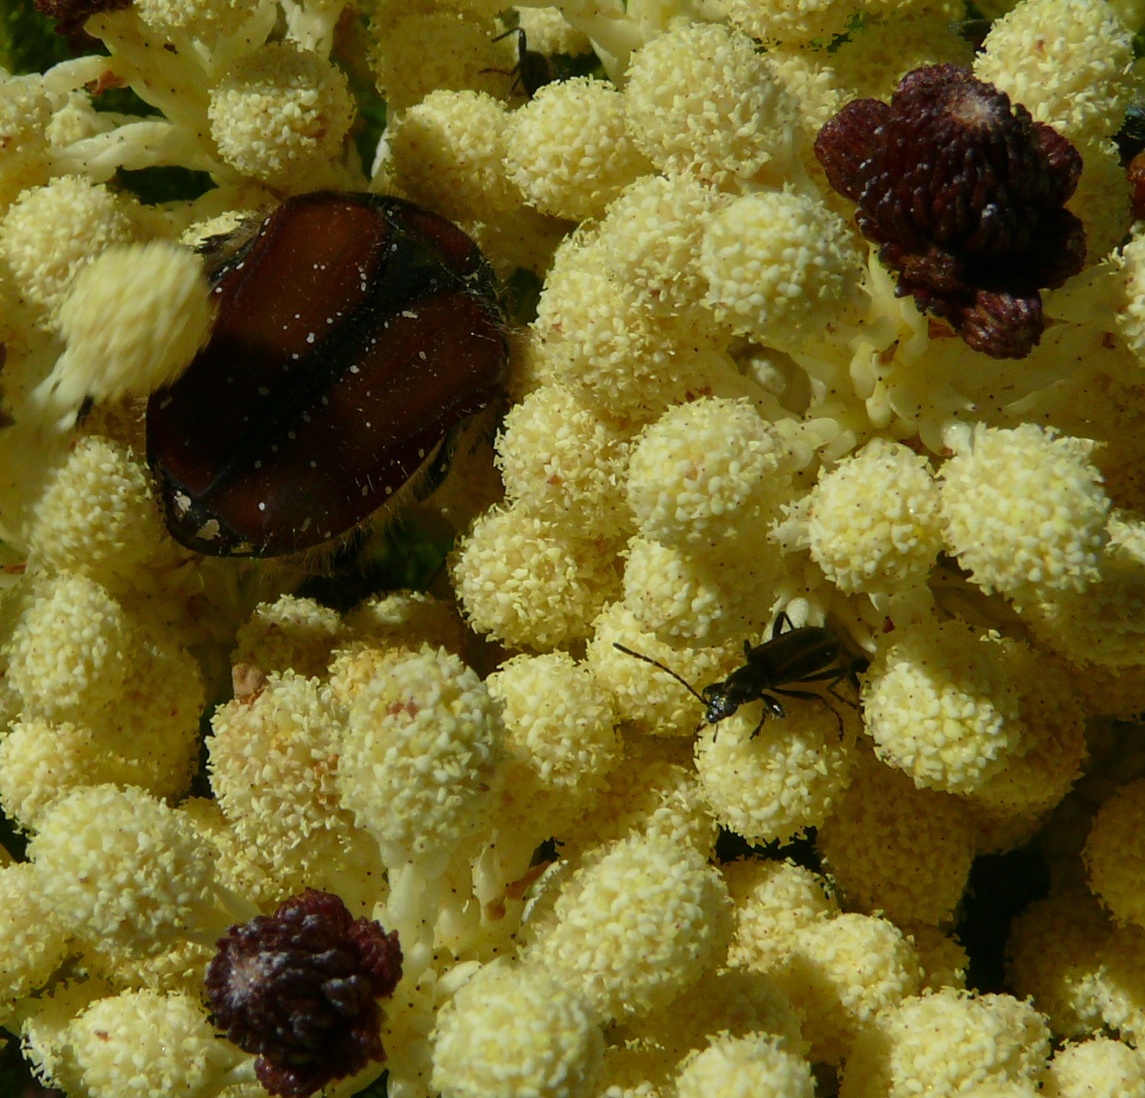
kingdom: Animalia
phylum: Arthropoda
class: Insecta
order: Coleoptera
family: Scarabaeidae
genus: Trichostetha
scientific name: Trichostetha capensis
